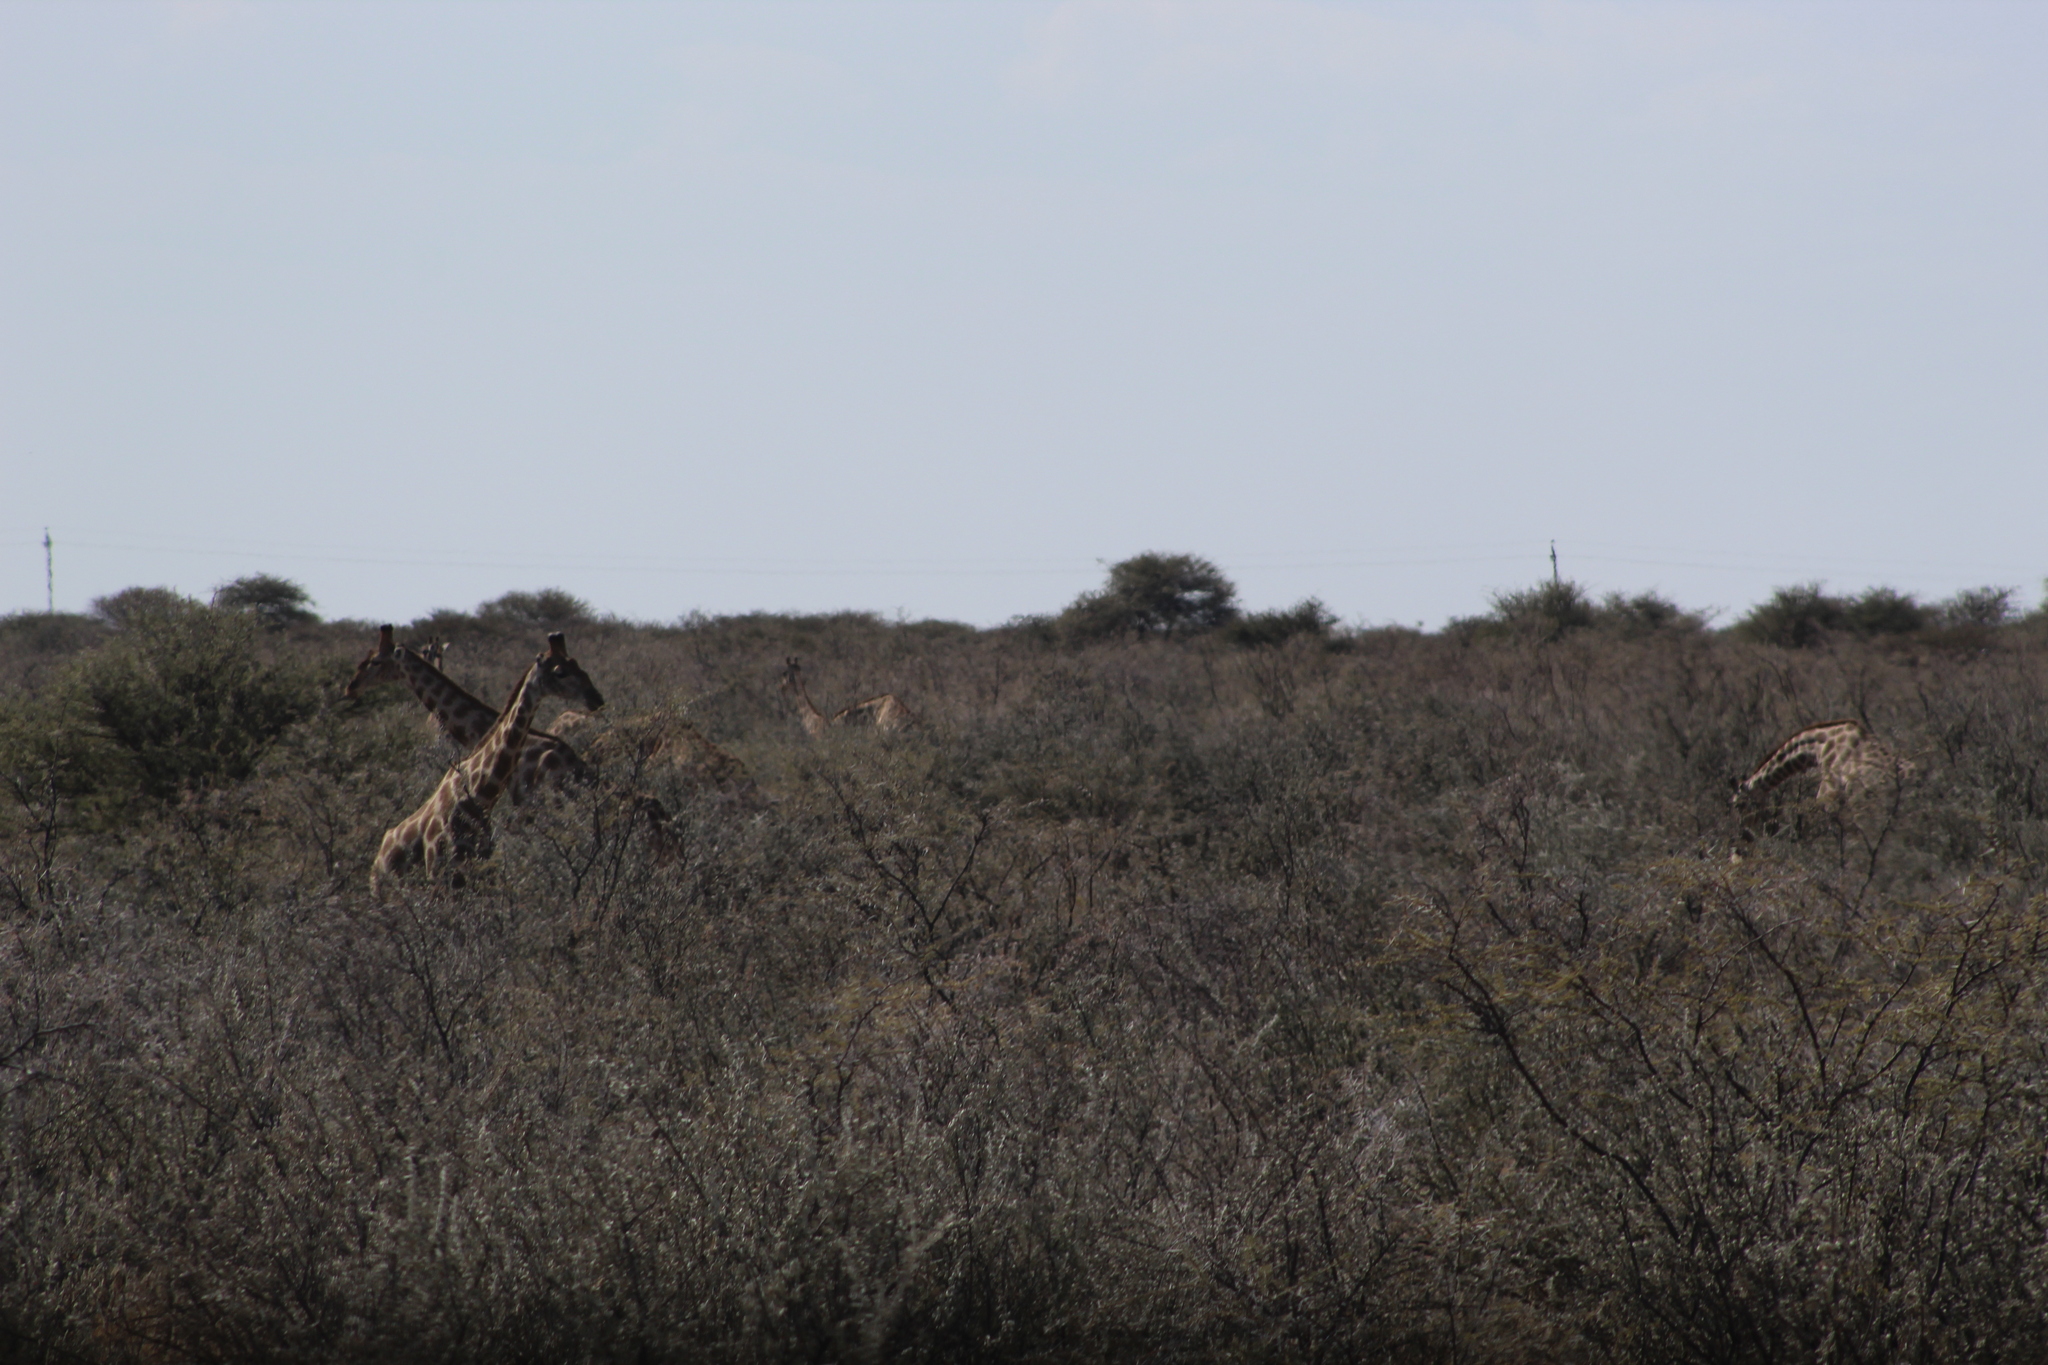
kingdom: Animalia
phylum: Chordata
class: Mammalia
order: Artiodactyla
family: Giraffidae
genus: Giraffa
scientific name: Giraffa giraffa
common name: Southern giraffe
